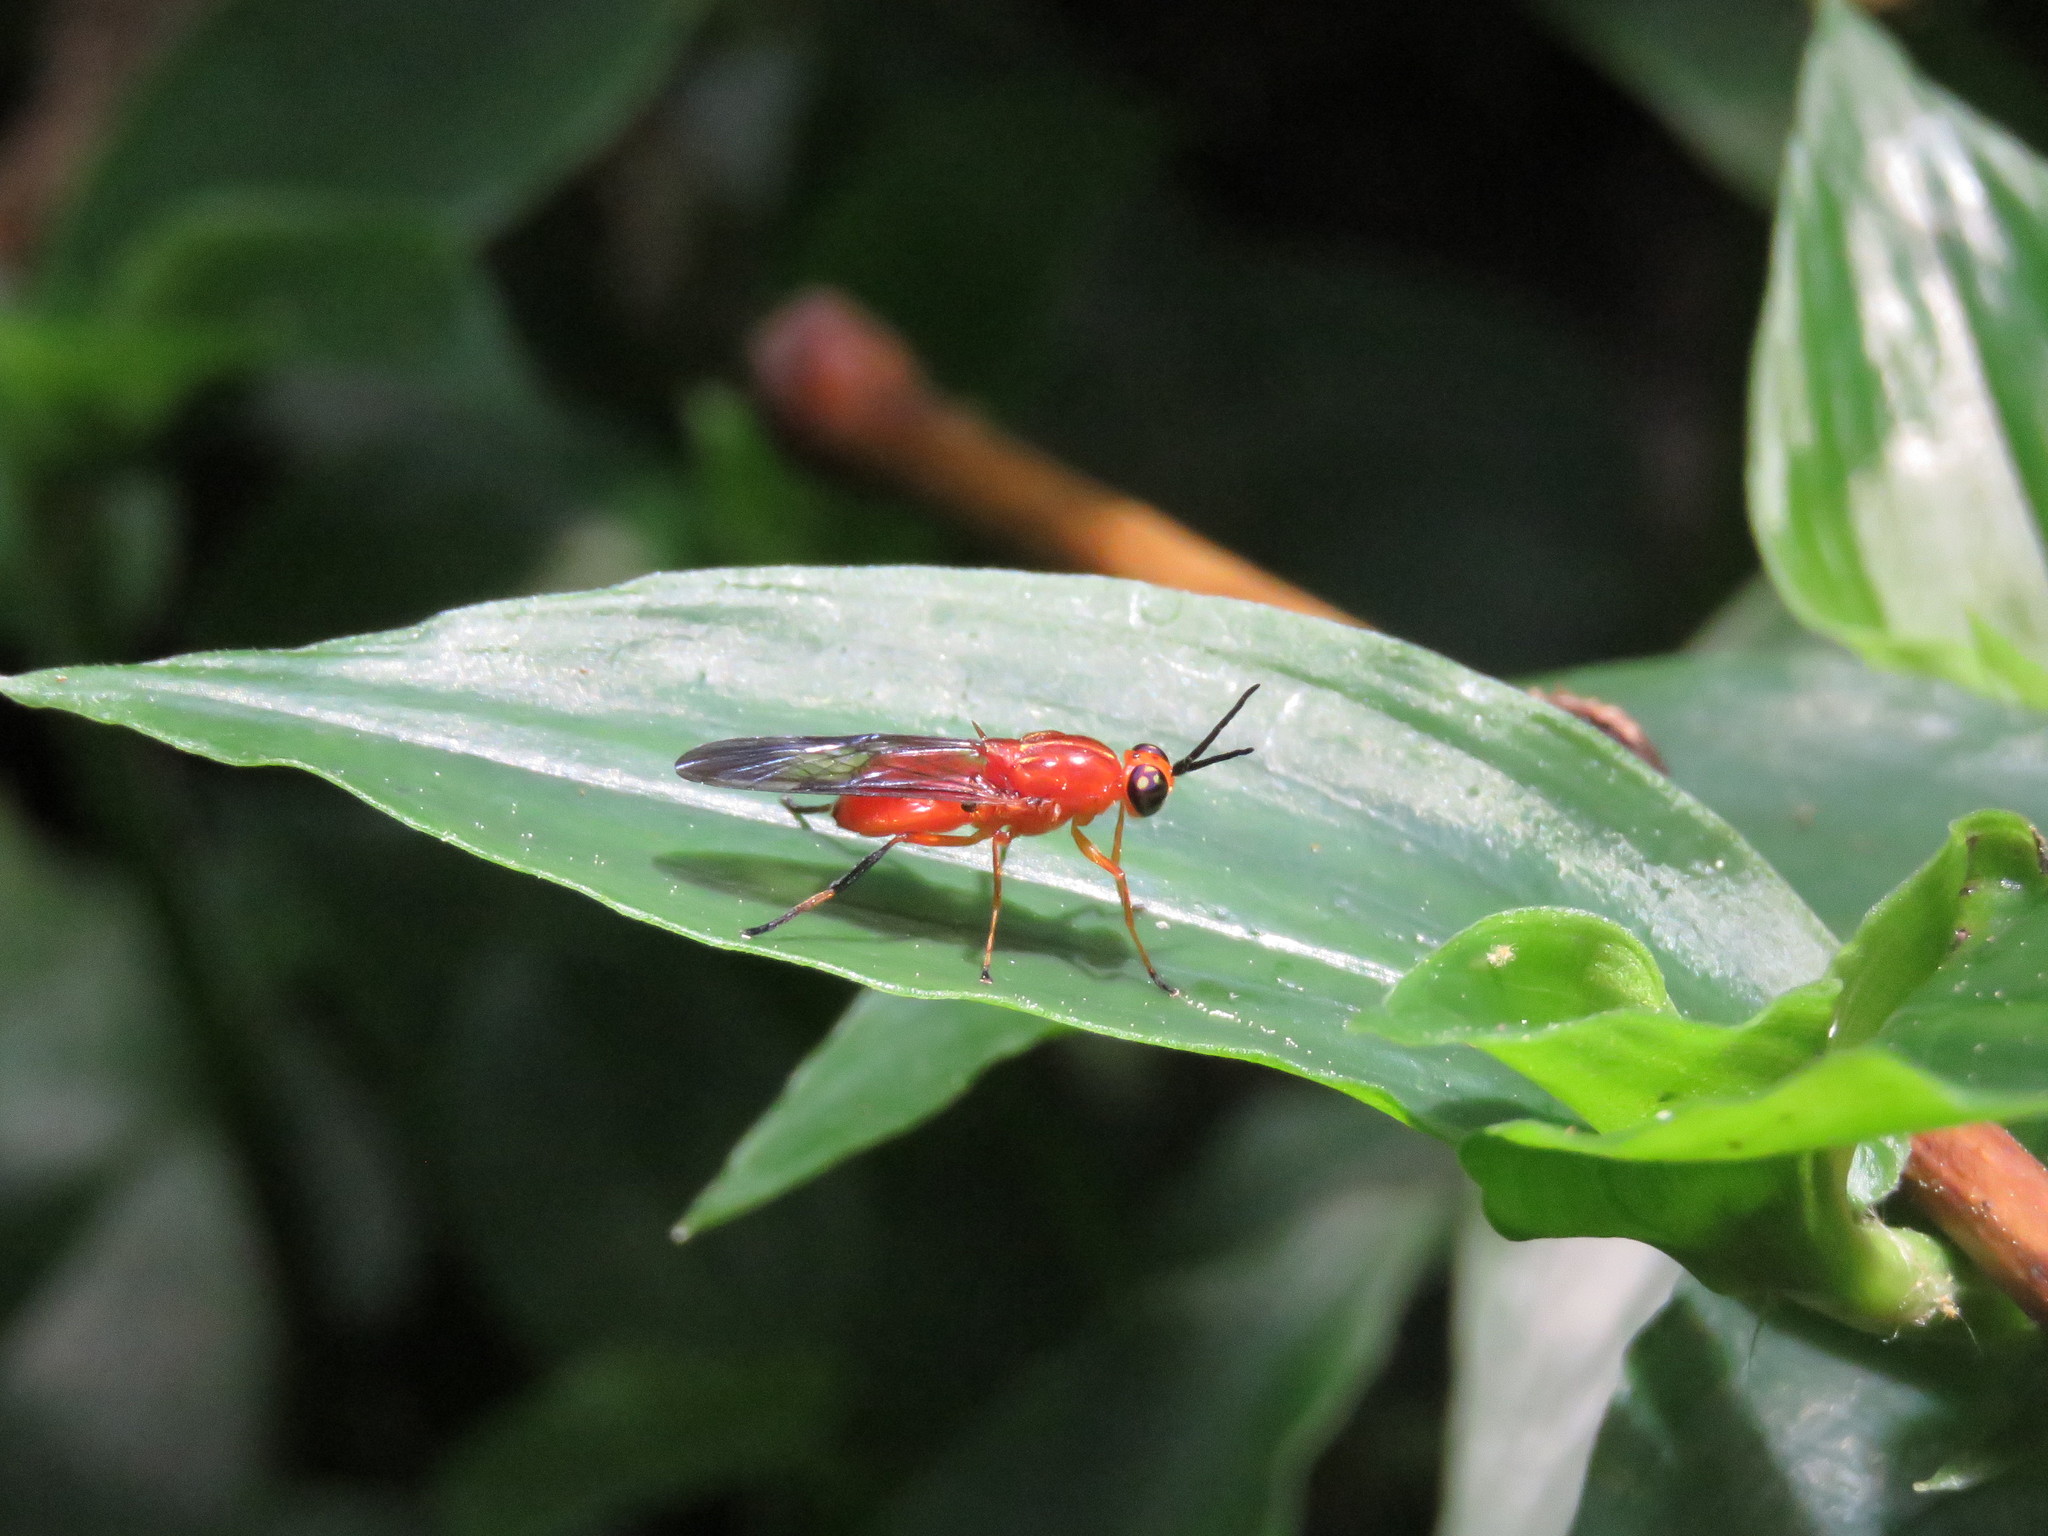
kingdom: Animalia
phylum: Arthropoda
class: Insecta
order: Diptera
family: Stratiomyidae
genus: Cyphomyia
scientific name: Cyphomyia dispar
